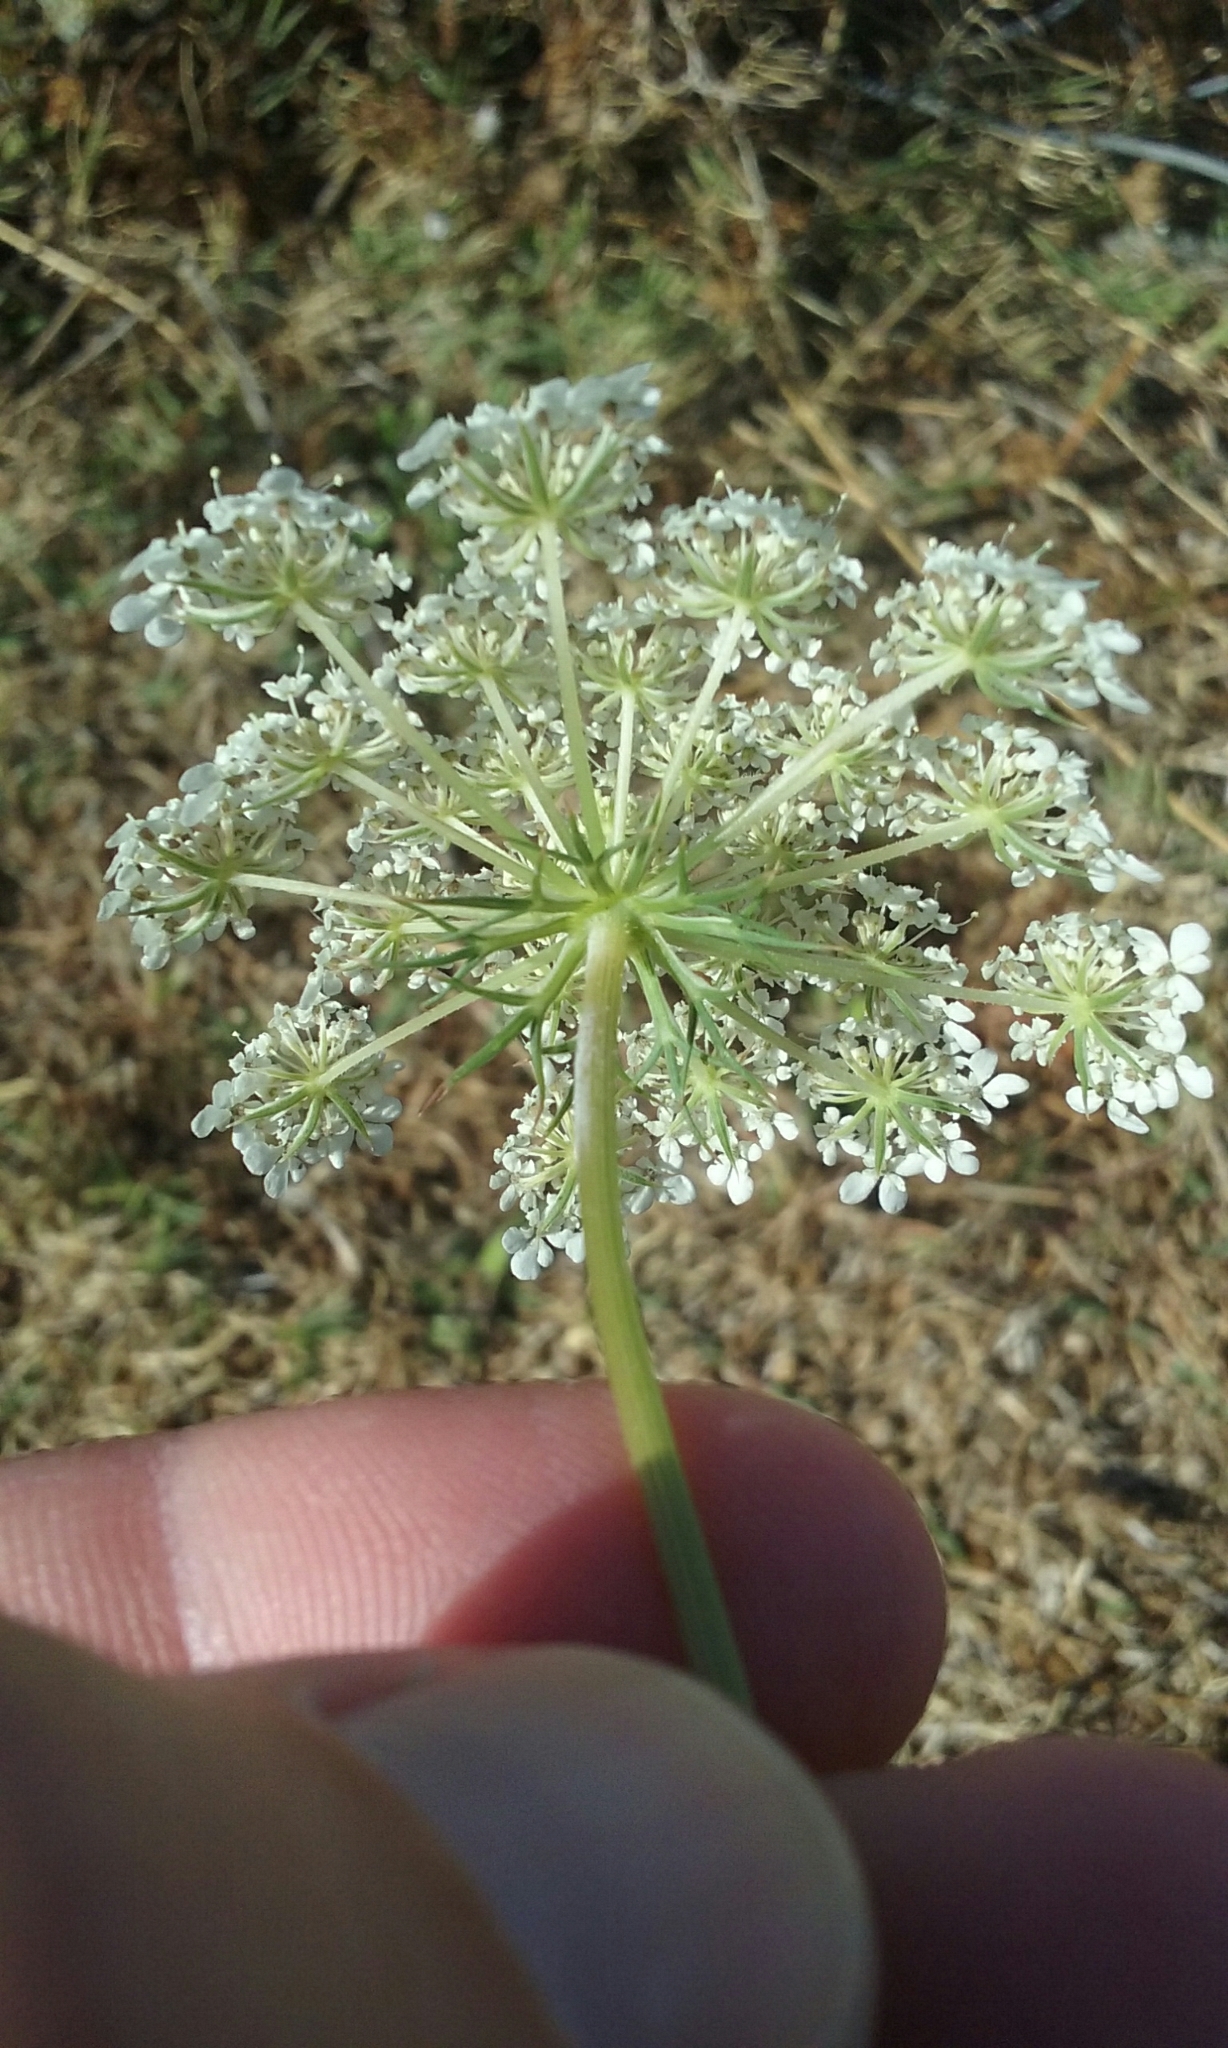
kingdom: Plantae
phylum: Tracheophyta
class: Magnoliopsida
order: Apiales
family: Apiaceae
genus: Daucus
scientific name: Daucus carota
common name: Wild carrot
